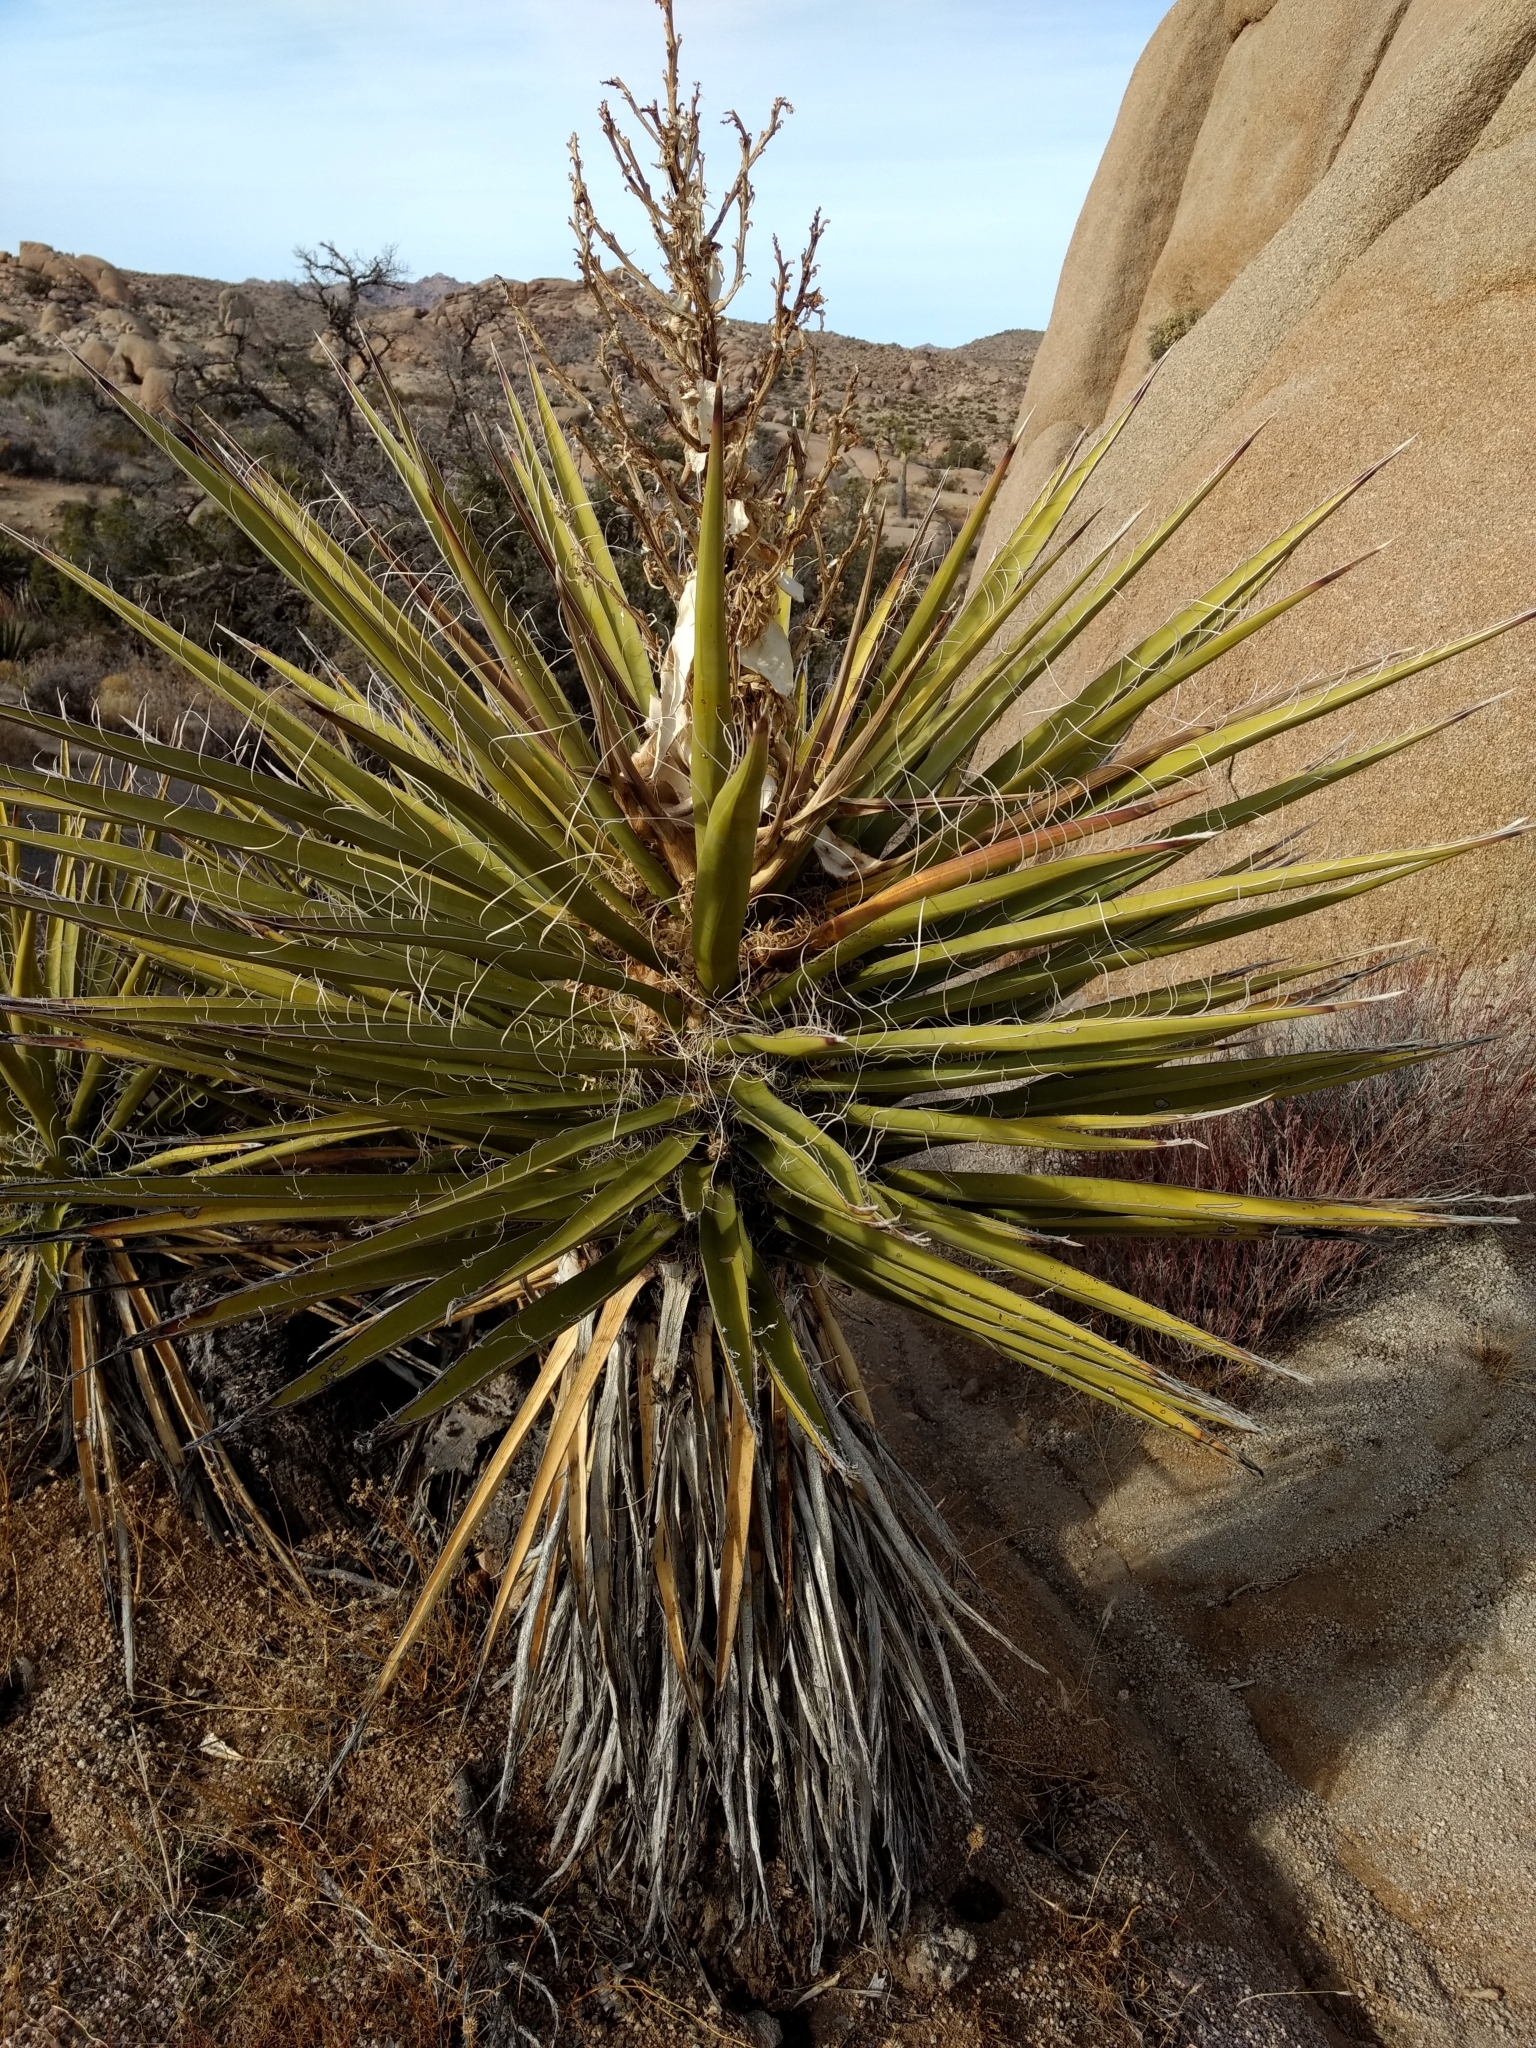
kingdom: Plantae
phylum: Tracheophyta
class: Liliopsida
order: Asparagales
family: Asparagaceae
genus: Yucca
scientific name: Yucca schidigera
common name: Mojave yucca
